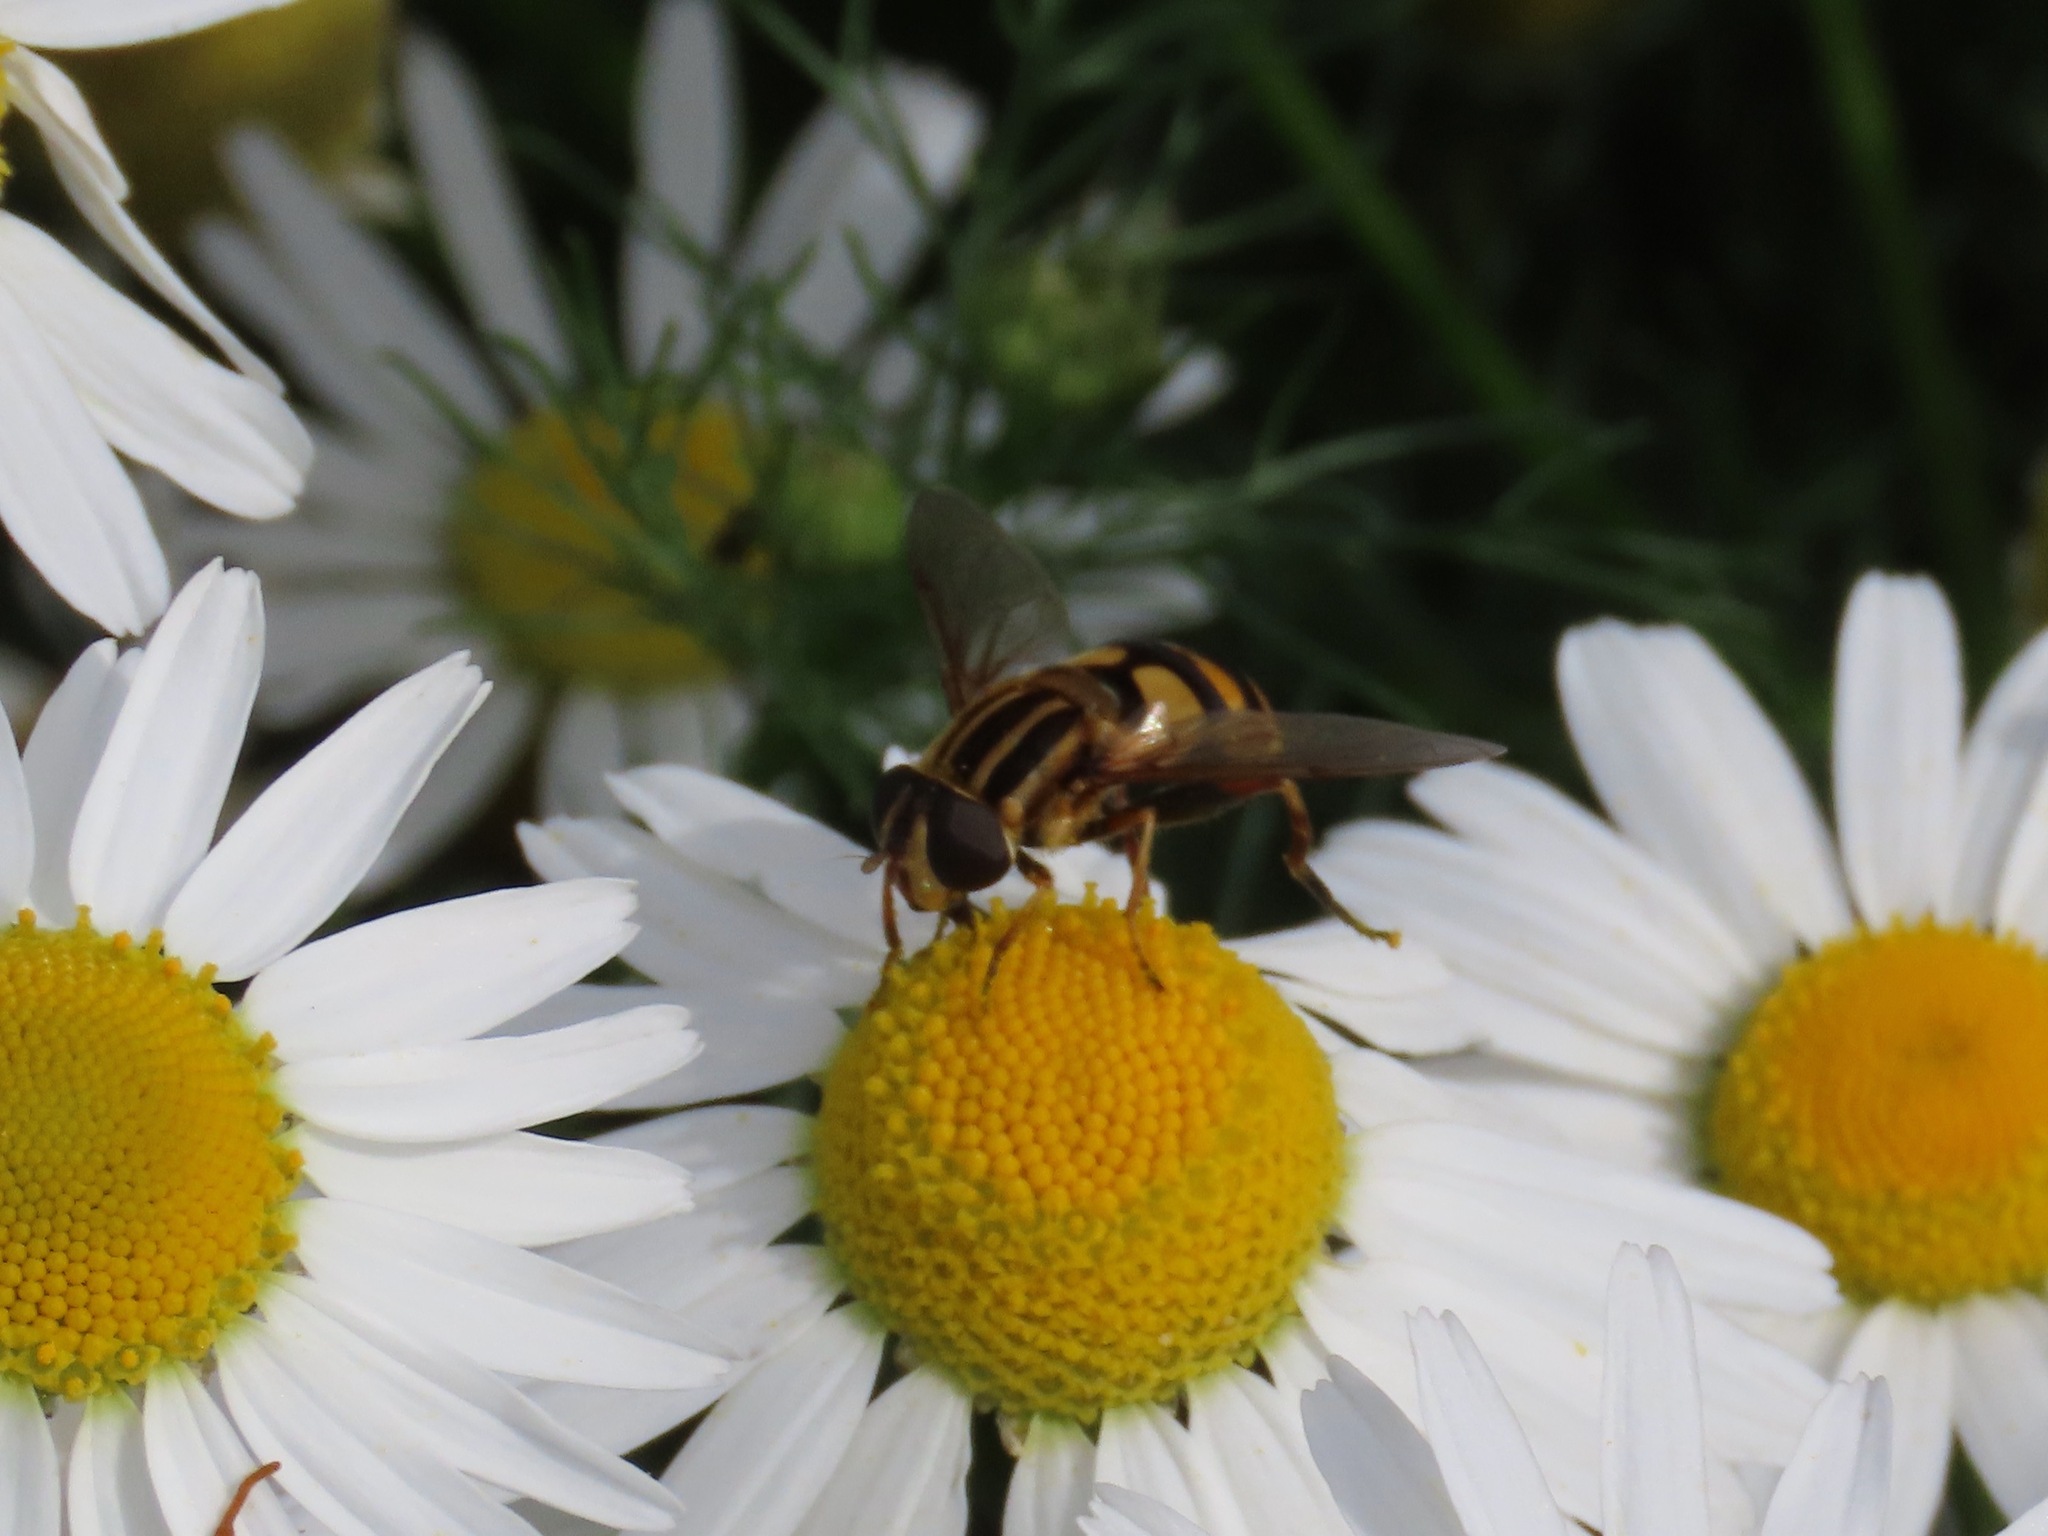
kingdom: Animalia
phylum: Arthropoda
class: Insecta
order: Diptera
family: Syrphidae
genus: Helophilus
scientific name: Helophilus fasciatus
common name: Narrow-headed marsh fly
